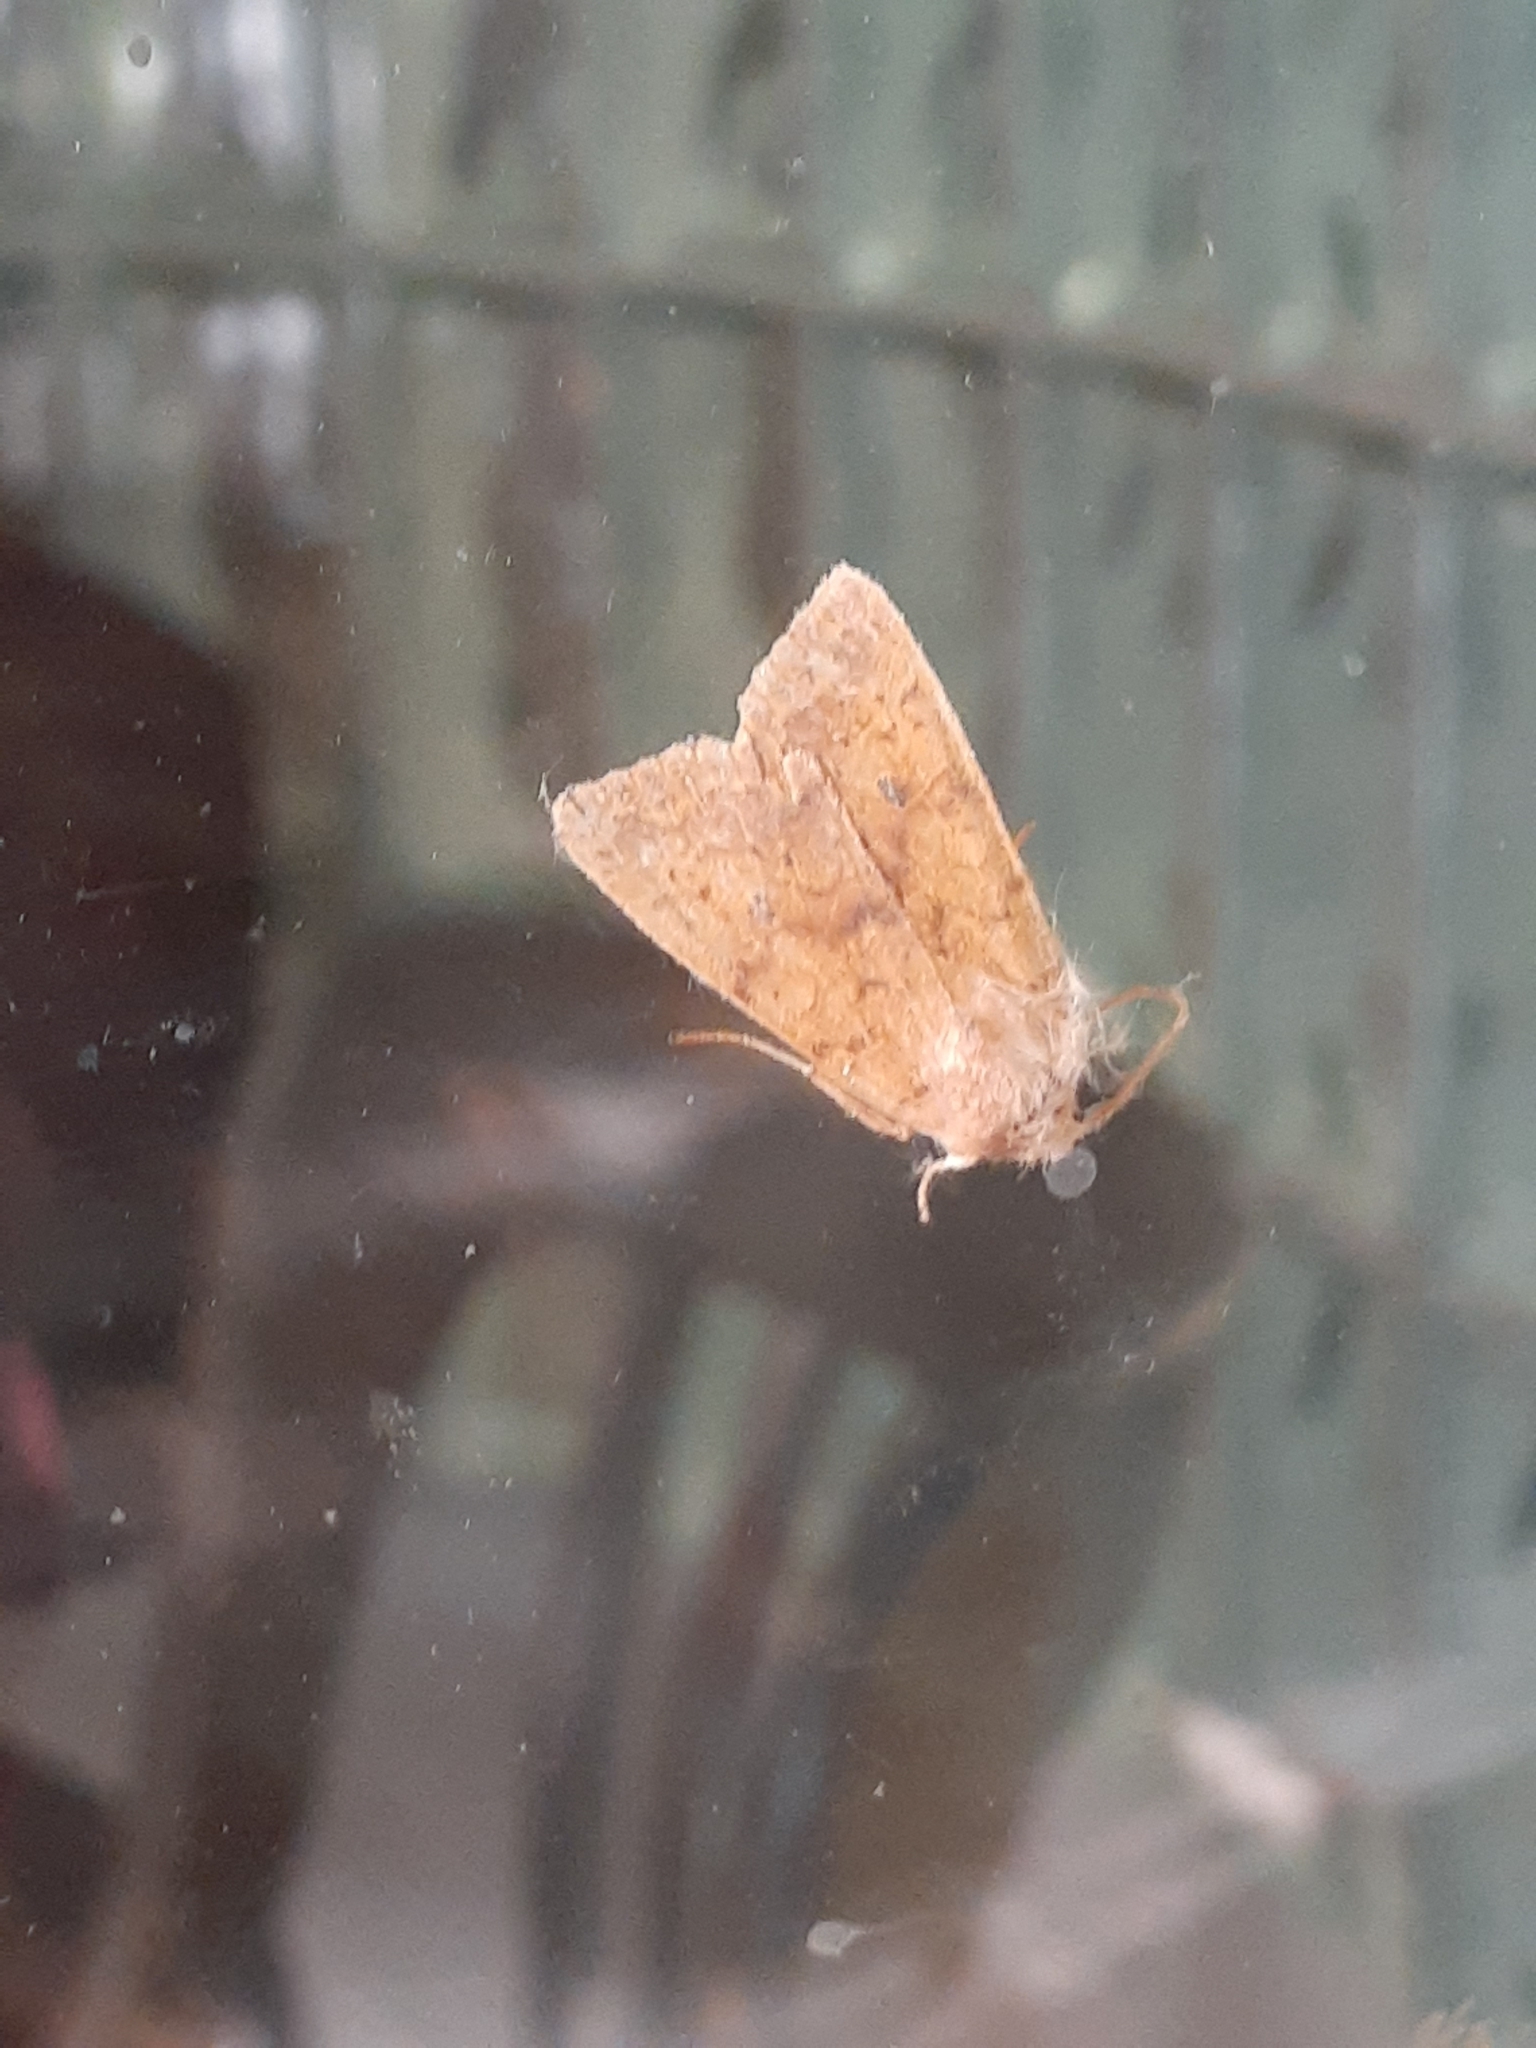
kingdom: Animalia
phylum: Arthropoda
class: Insecta
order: Lepidoptera
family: Noctuidae
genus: Agrochola
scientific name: Agrochola bicolorago
